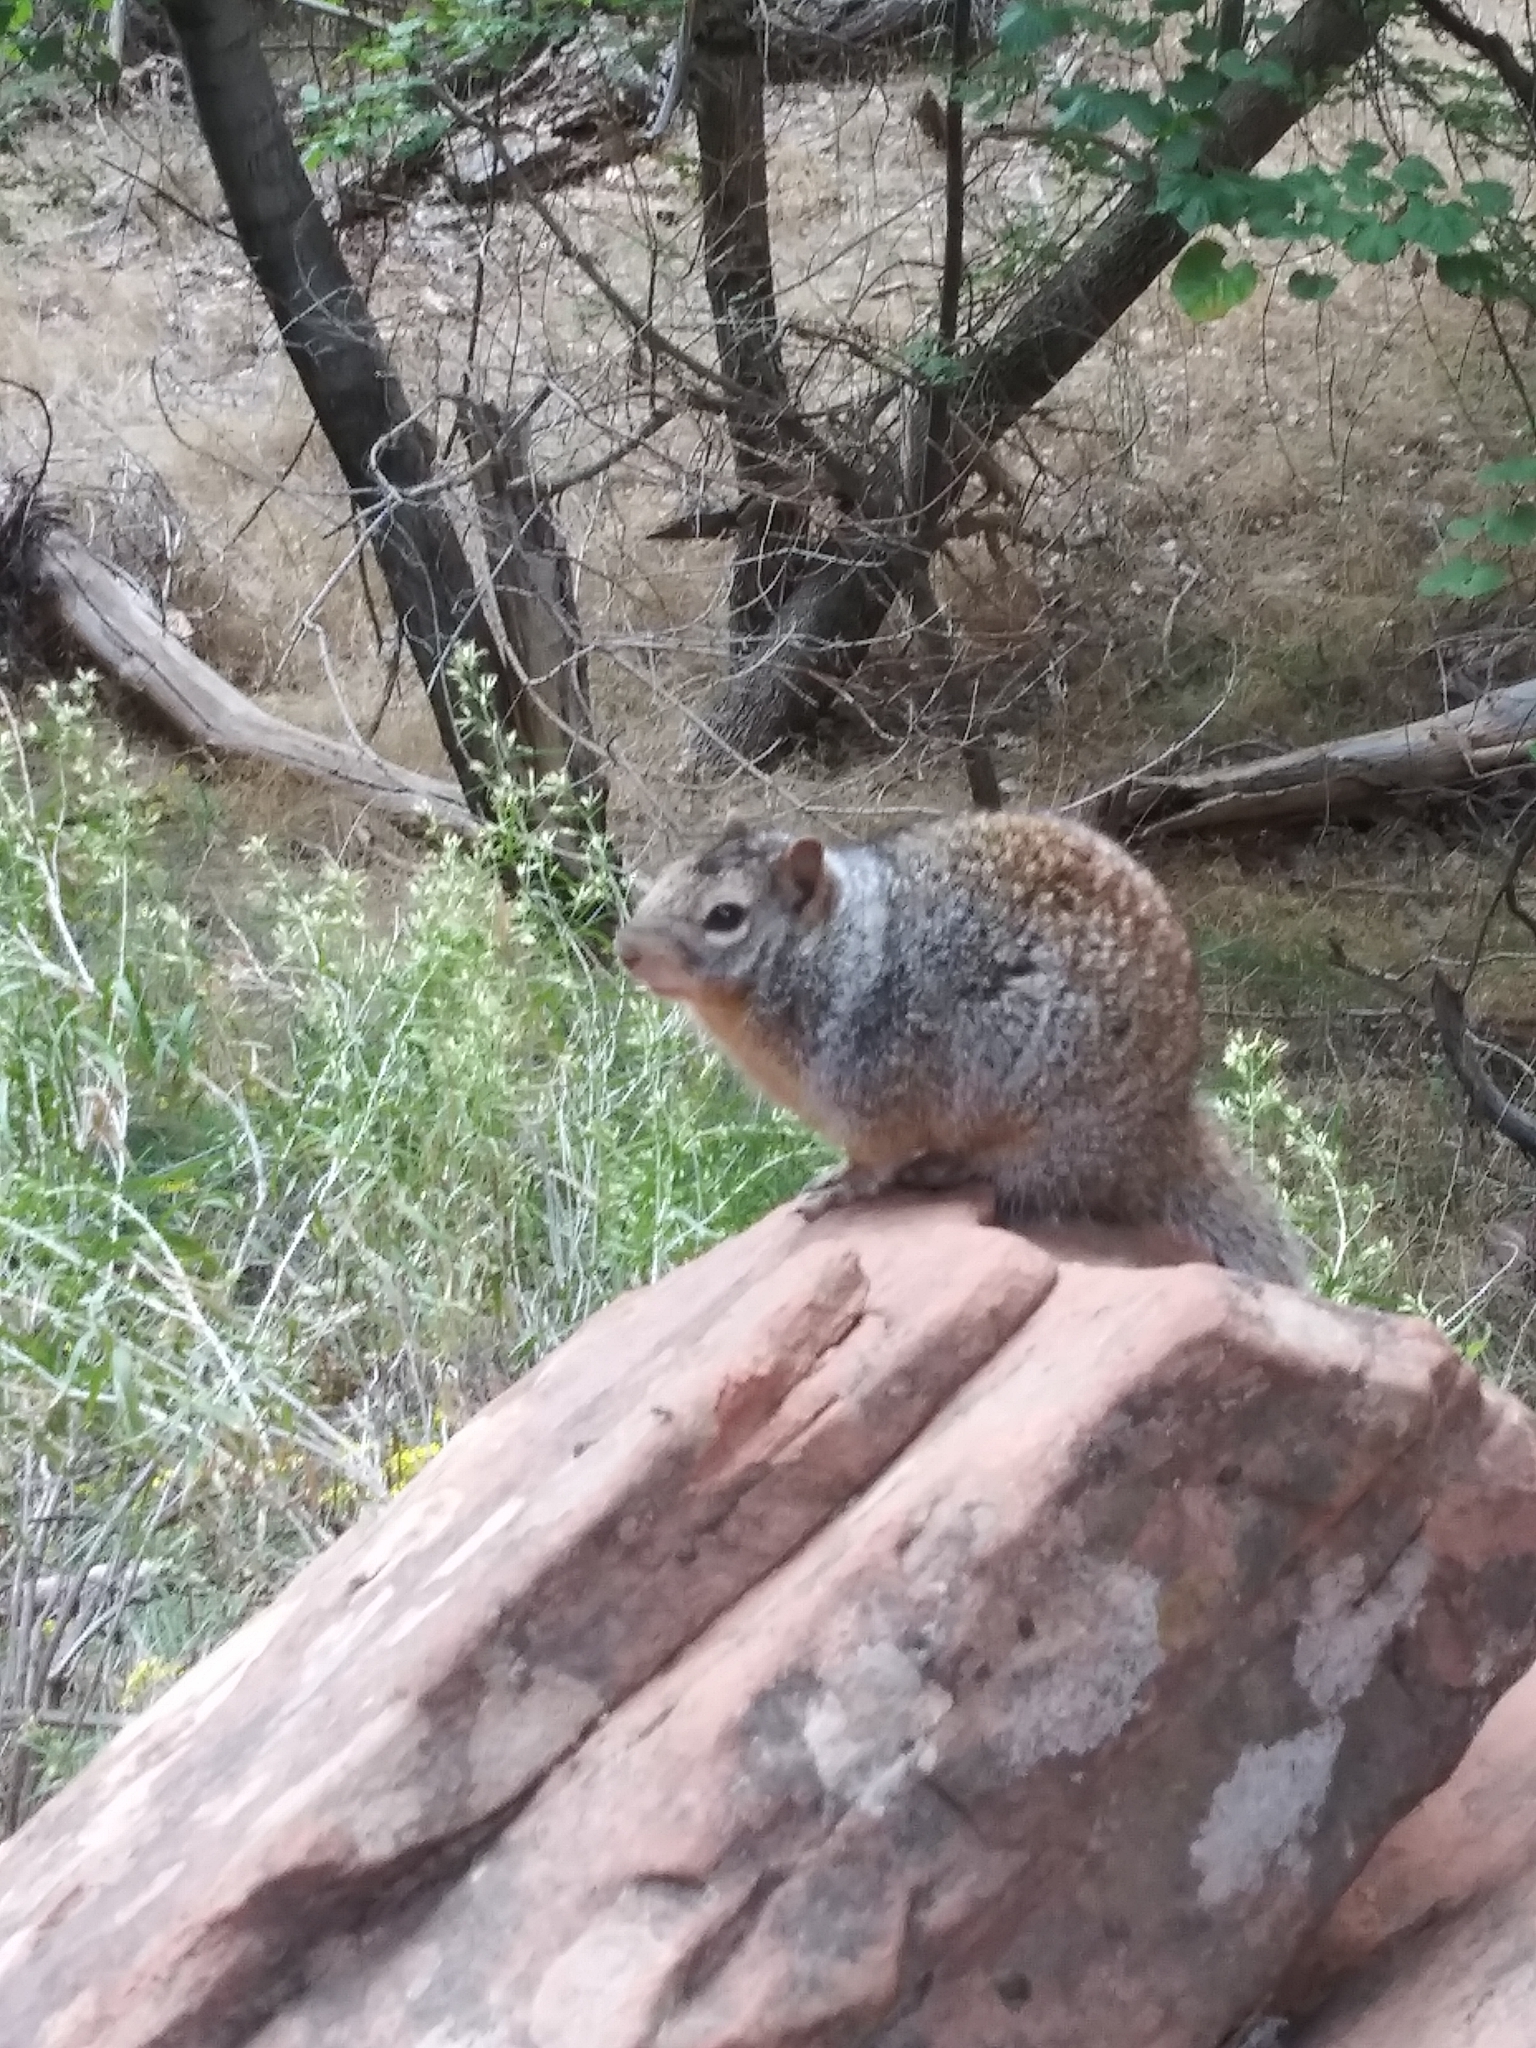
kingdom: Animalia
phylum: Chordata
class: Mammalia
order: Rodentia
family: Sciuridae
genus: Otospermophilus
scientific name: Otospermophilus variegatus
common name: Rock squirrel
